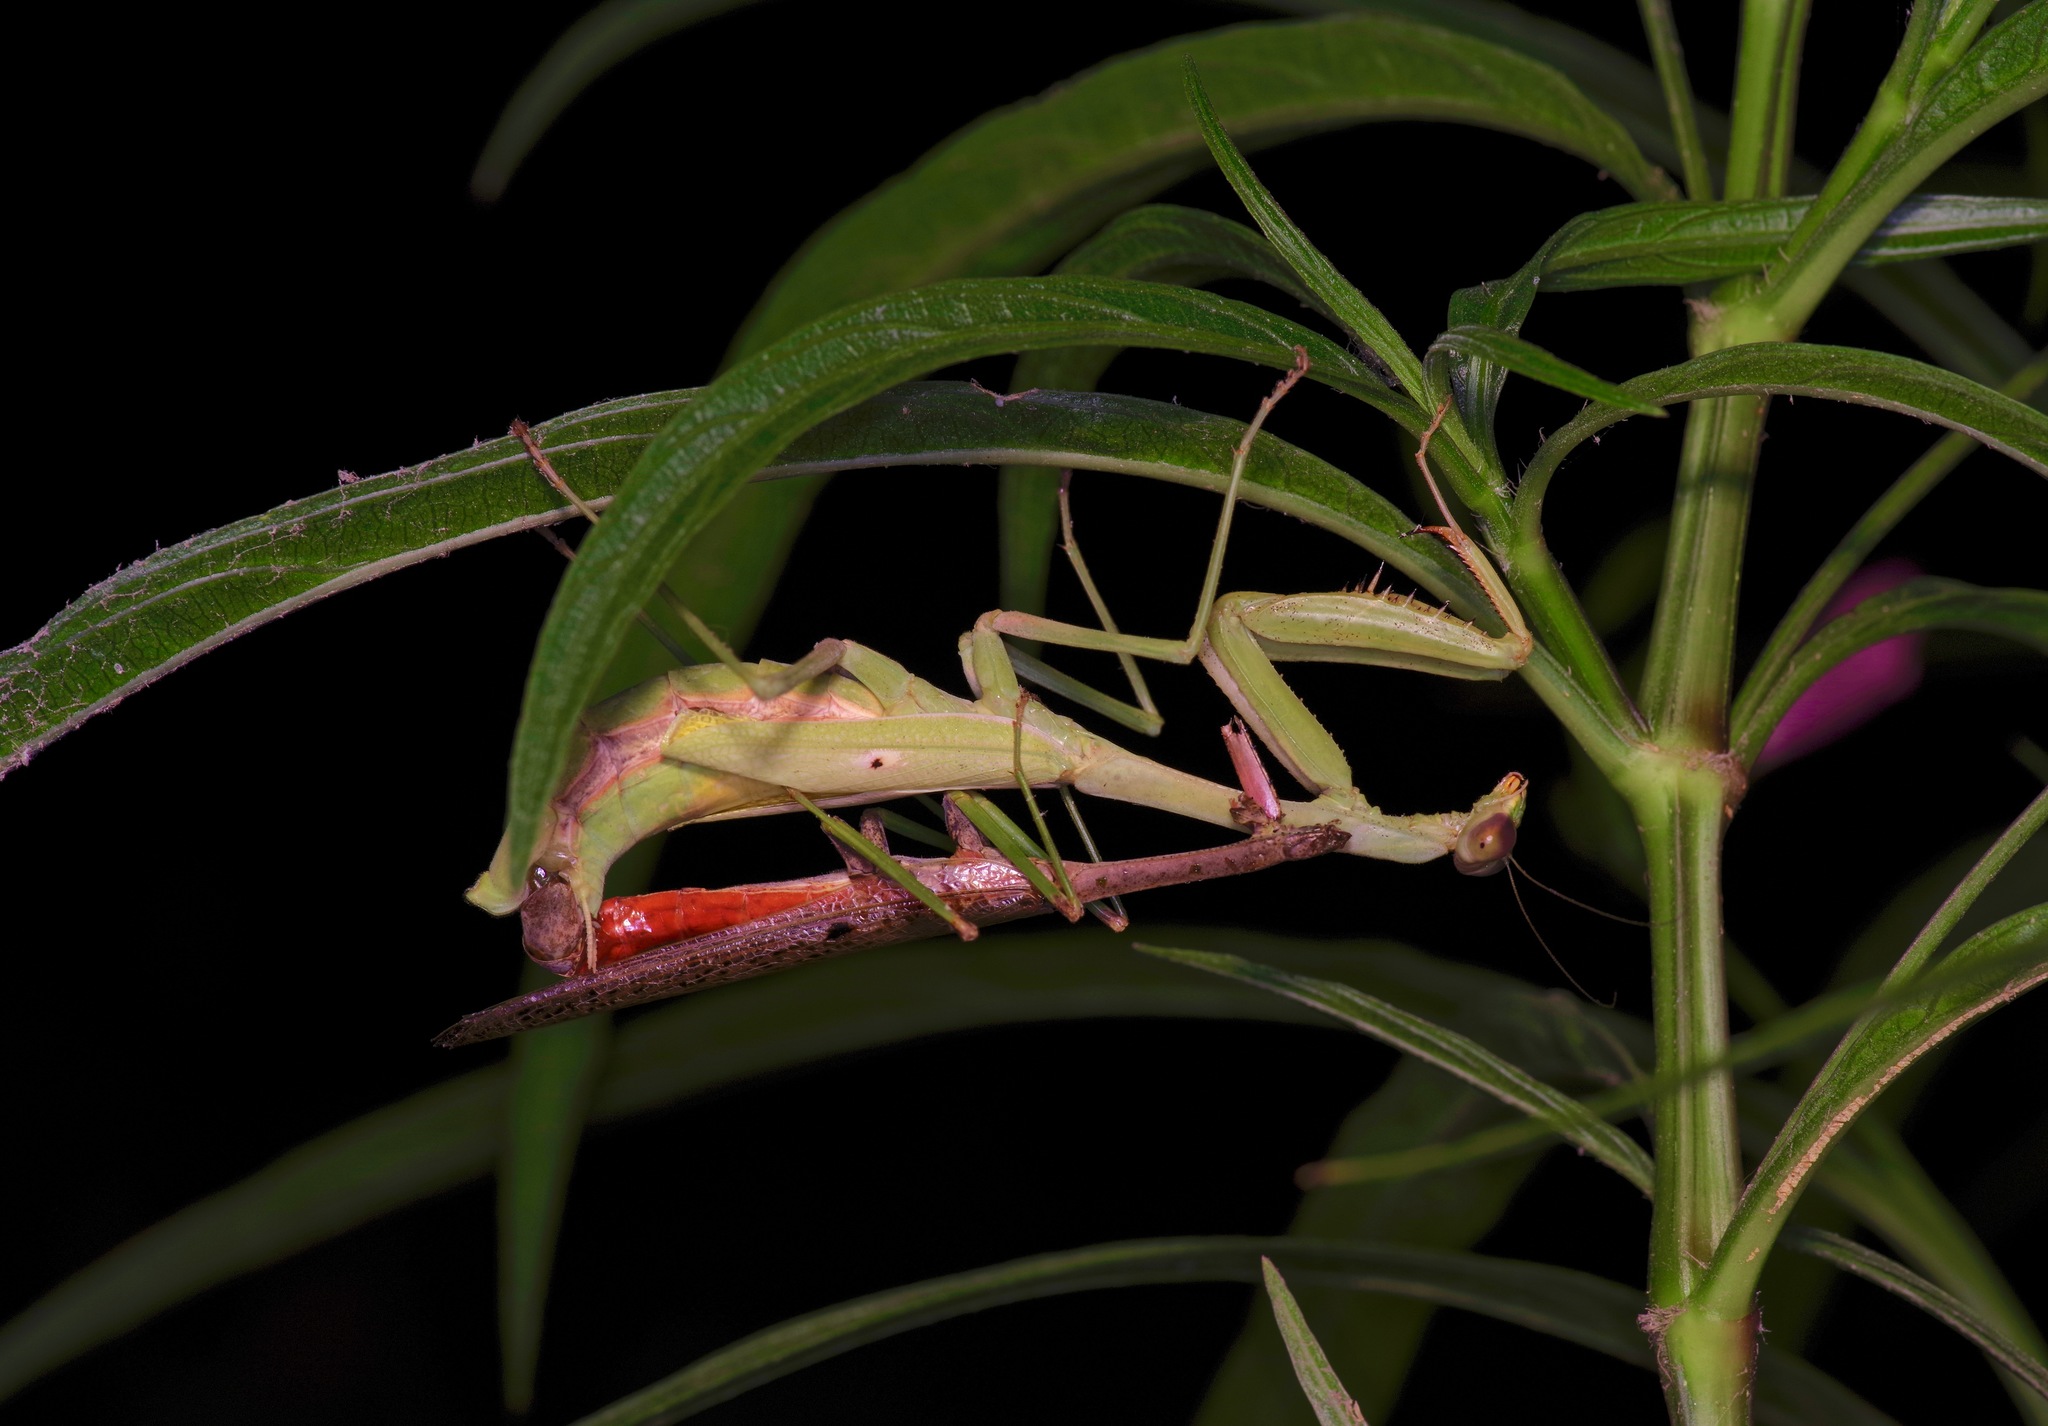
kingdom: Animalia
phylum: Arthropoda
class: Insecta
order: Mantodea
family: Mantidae
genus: Stagmomantis
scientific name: Stagmomantis carolina
